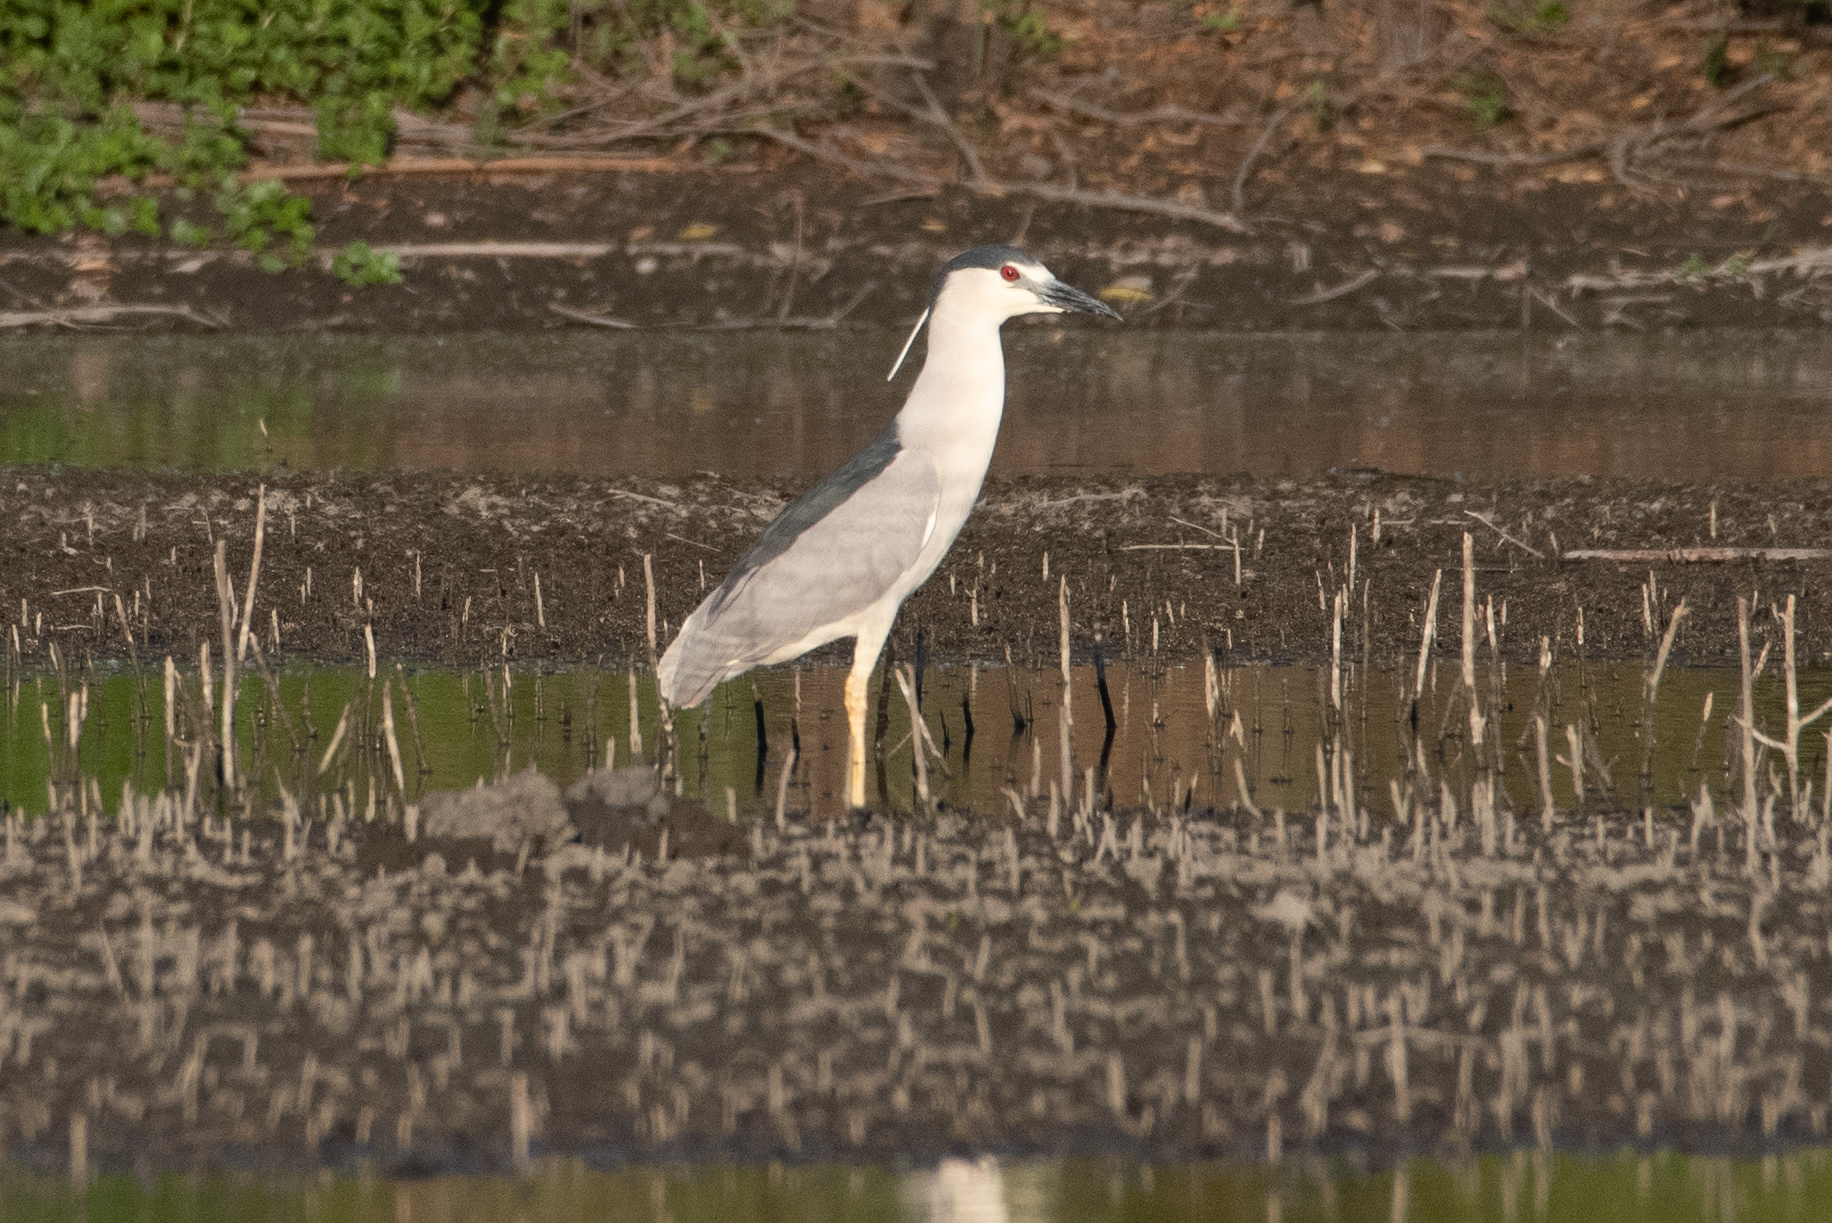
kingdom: Animalia
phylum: Chordata
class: Aves
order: Pelecaniformes
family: Ardeidae
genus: Nycticorax
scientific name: Nycticorax nycticorax
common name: Black-crowned night heron
